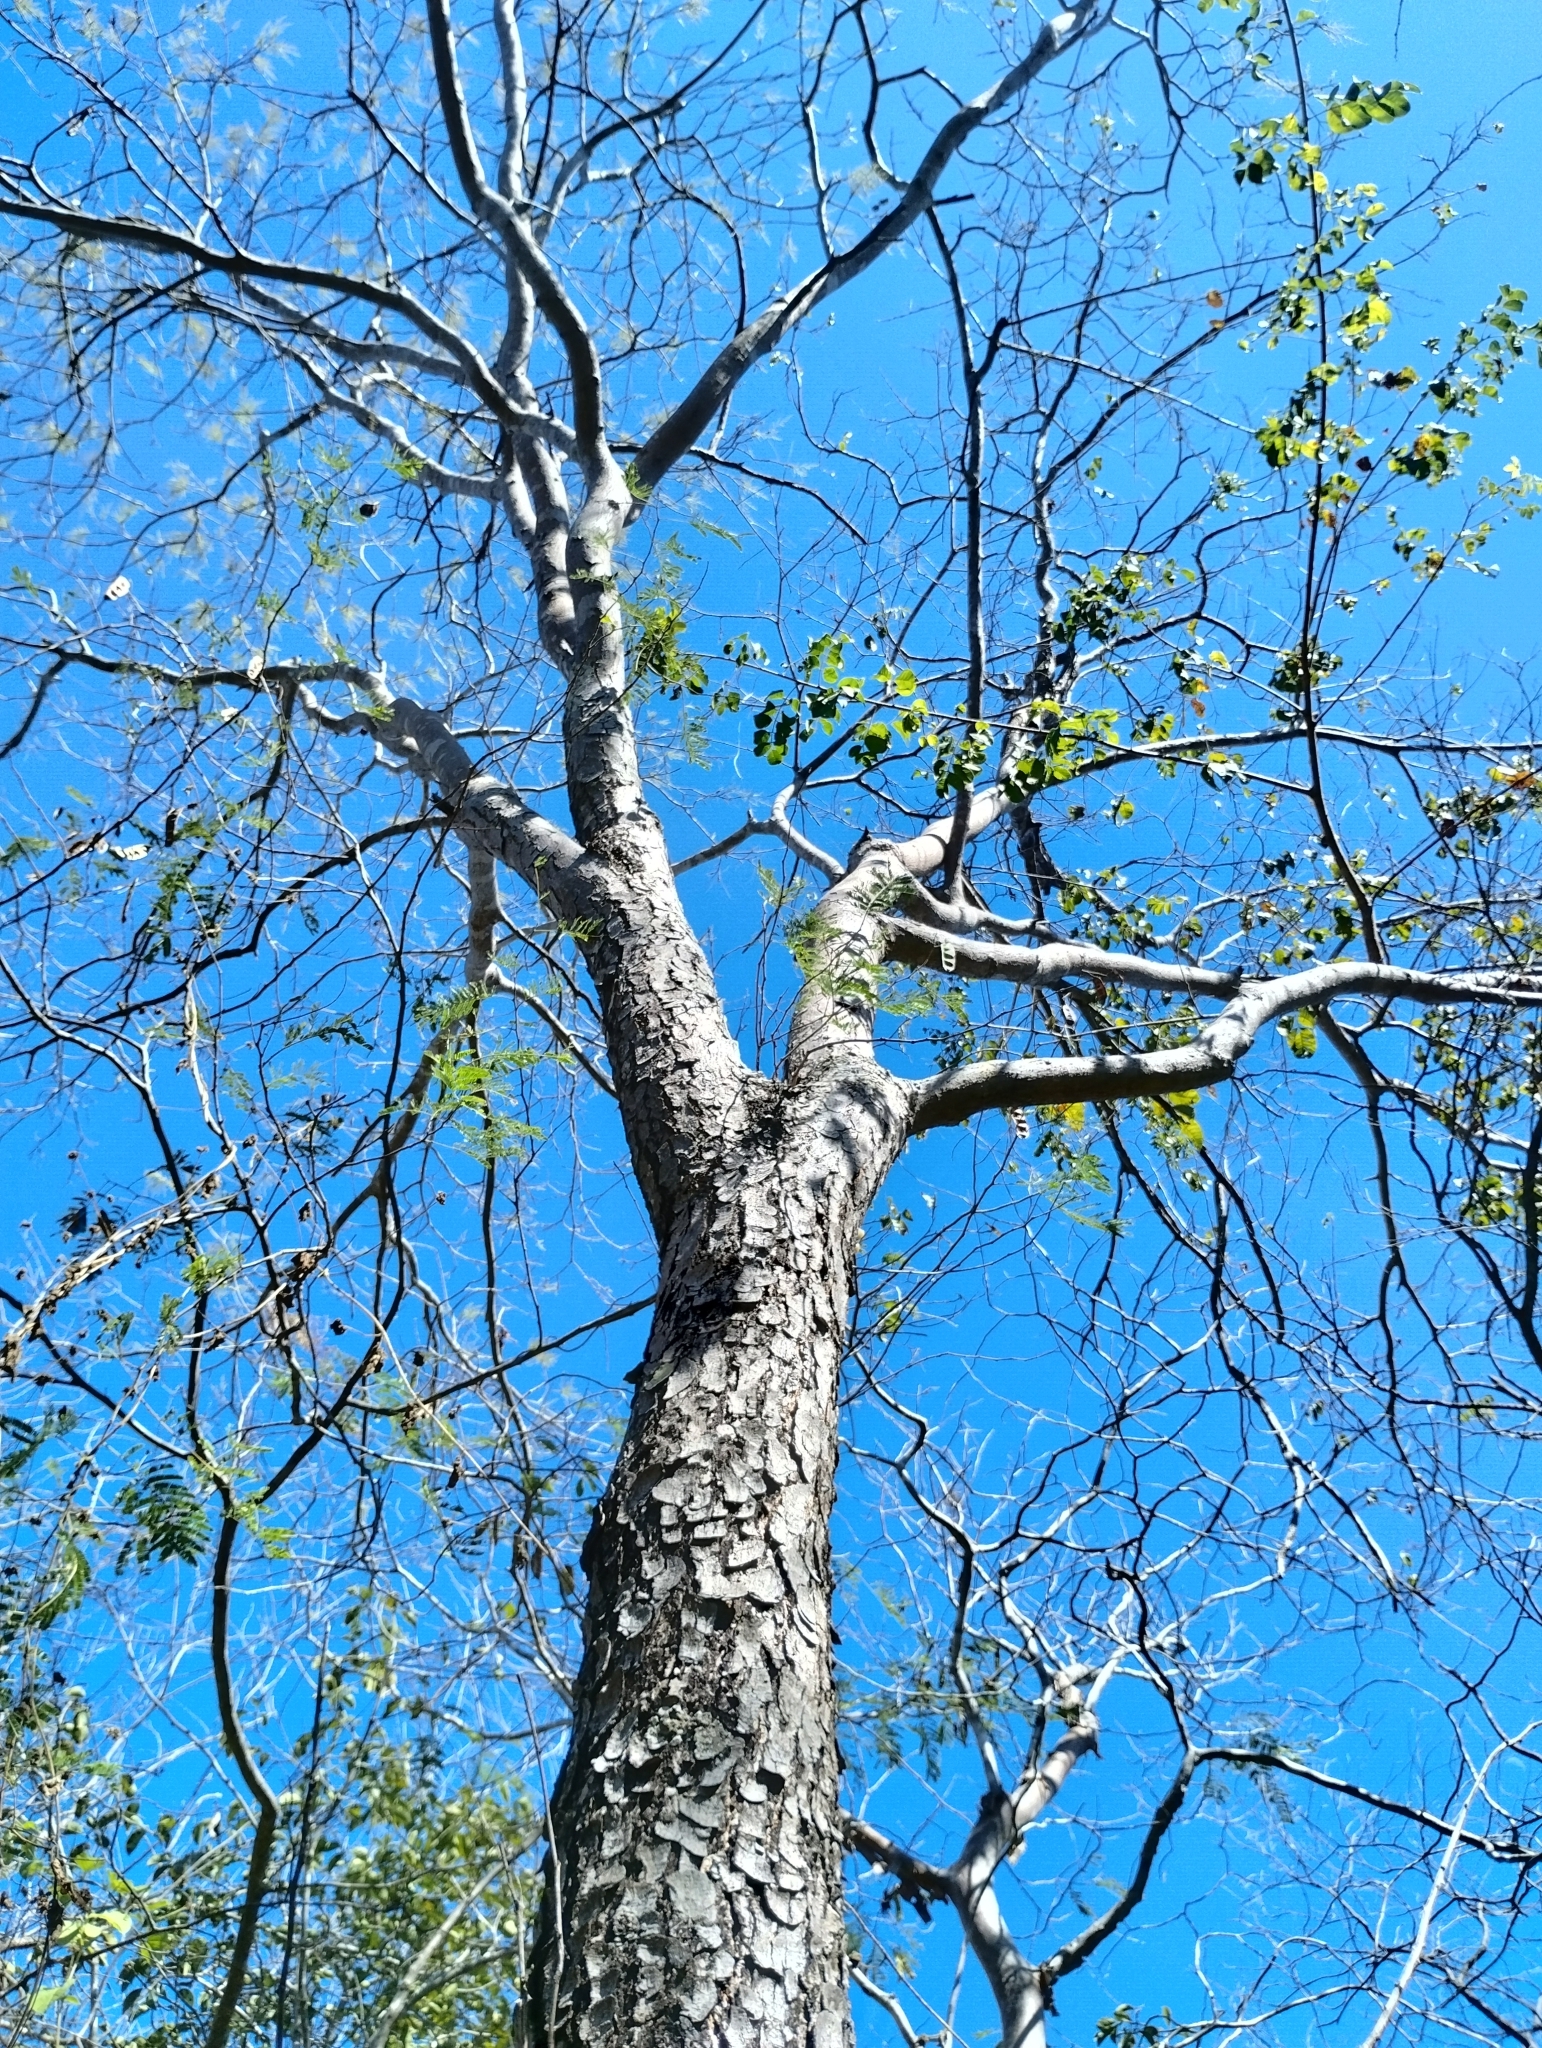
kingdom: Plantae
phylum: Tracheophyta
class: Magnoliopsida
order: Sapindales
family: Anacardiaceae
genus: Myracrodruon
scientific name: Myracrodruon urundeuva
